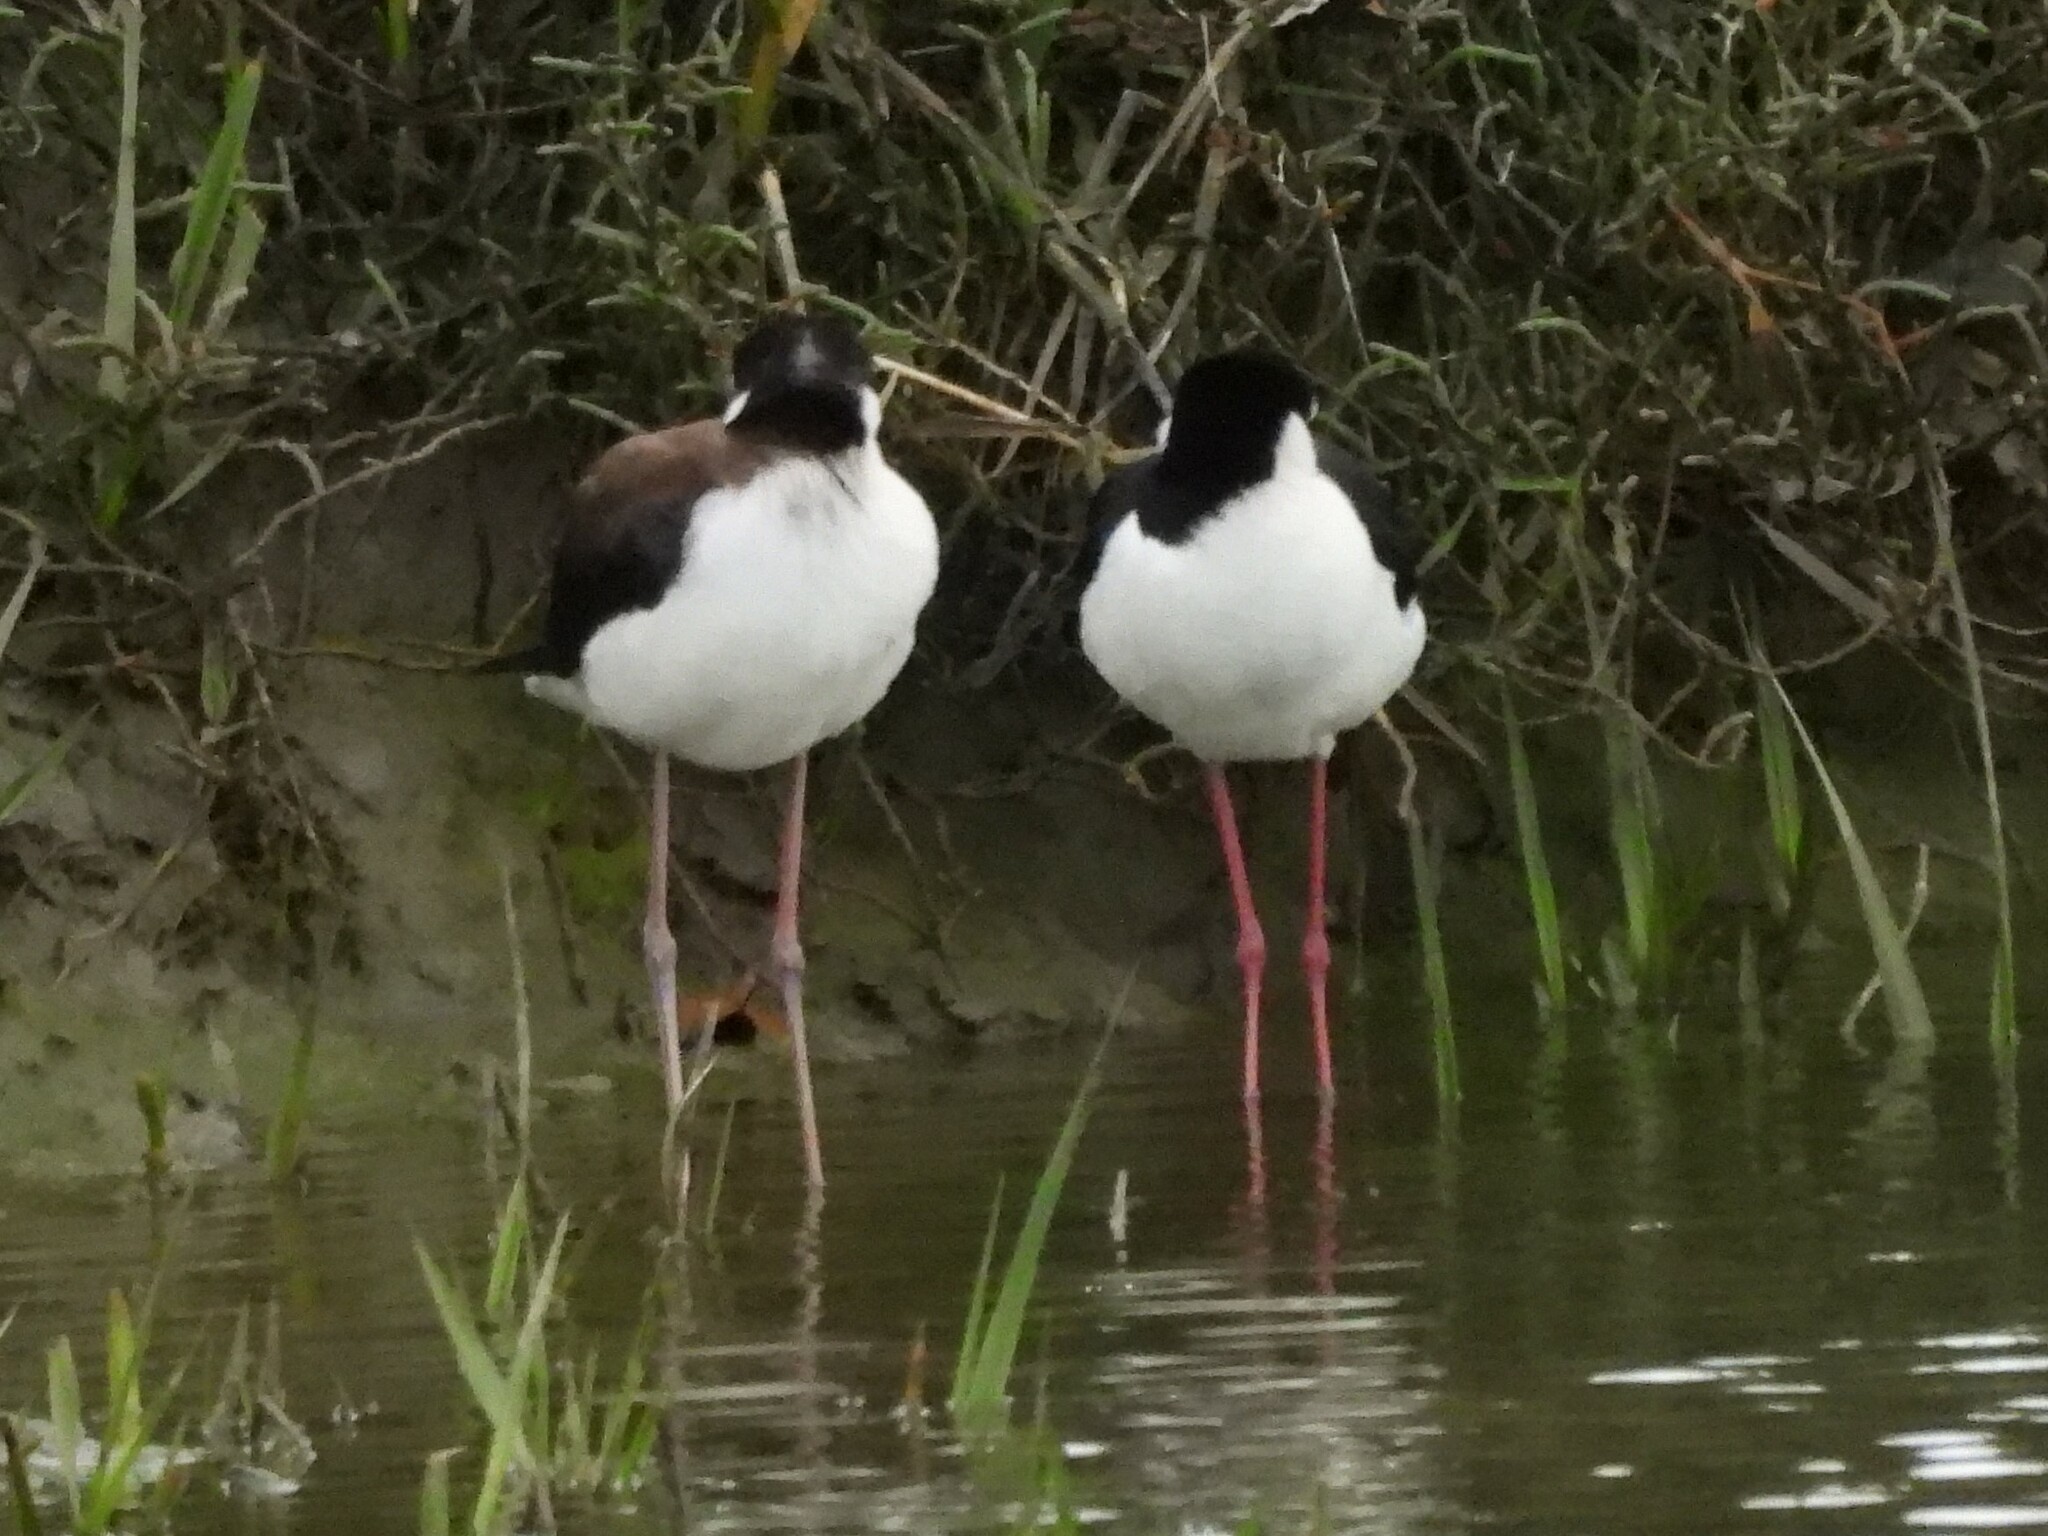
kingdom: Animalia
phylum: Chordata
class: Aves
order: Charadriiformes
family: Recurvirostridae
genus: Himantopus
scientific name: Himantopus mexicanus
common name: Black-necked stilt
